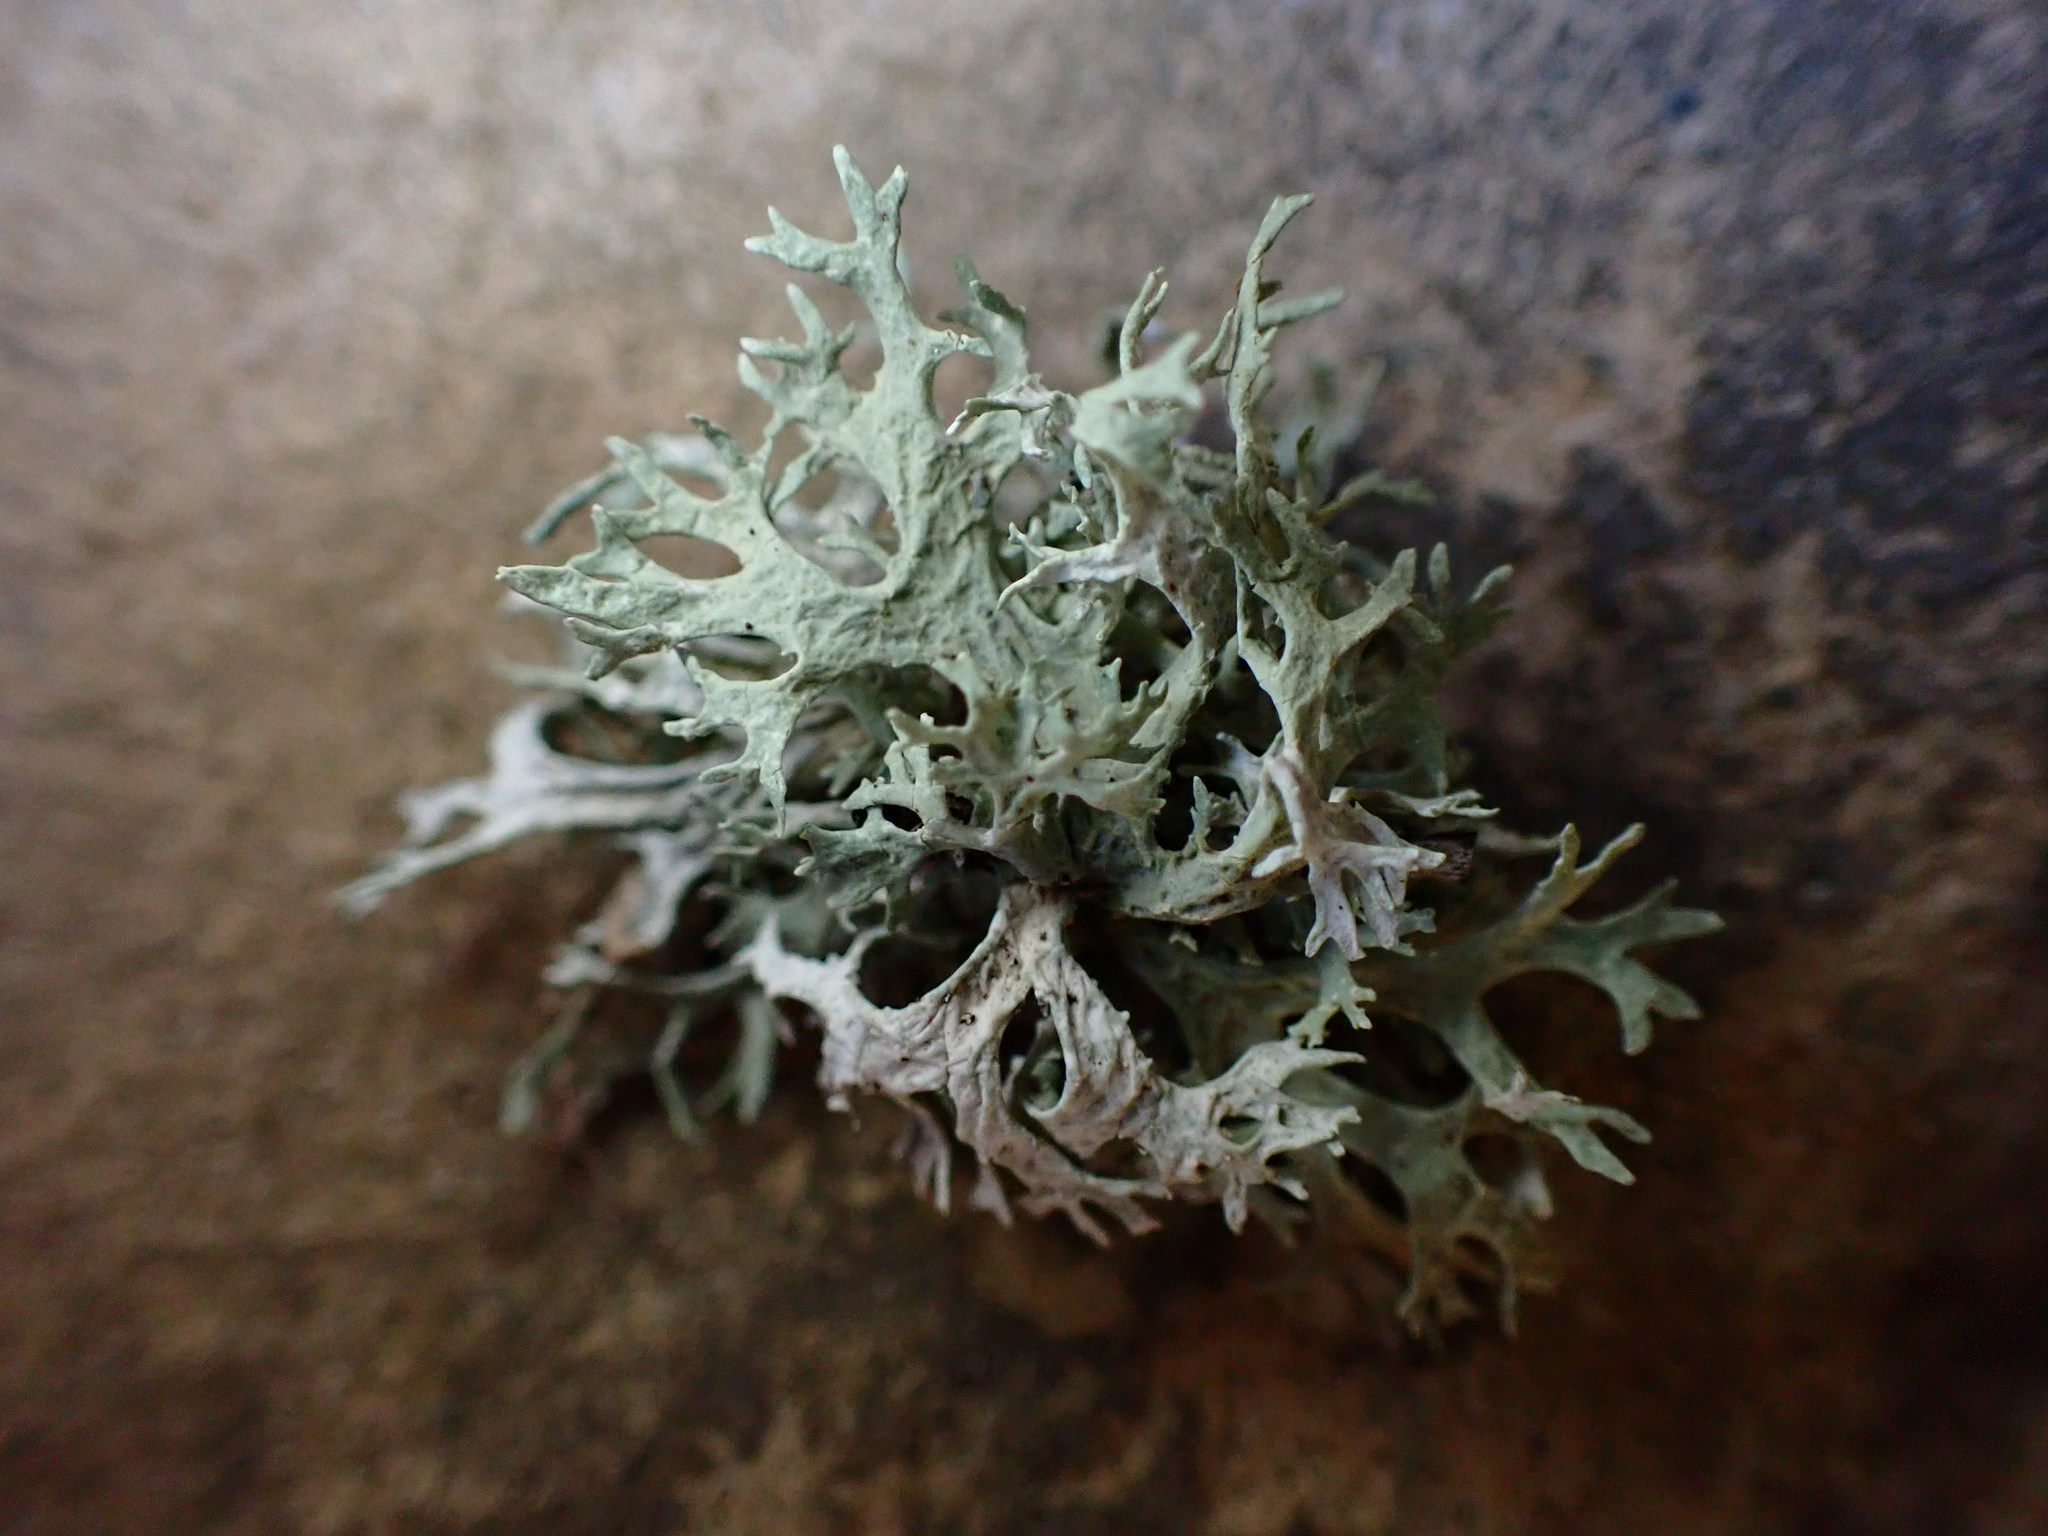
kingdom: Fungi
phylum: Ascomycota
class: Lecanoromycetes
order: Lecanorales
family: Parmeliaceae
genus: Evernia
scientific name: Evernia prunastri
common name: Oak moss
